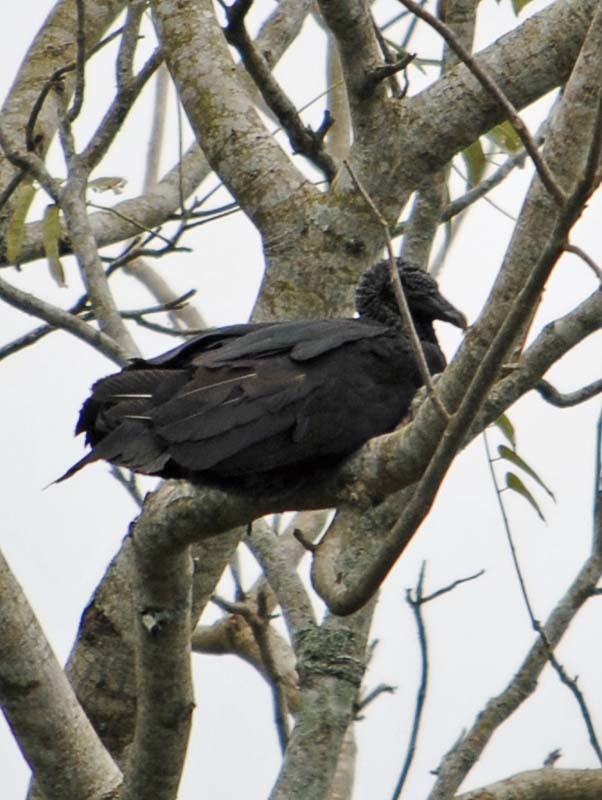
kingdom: Animalia
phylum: Chordata
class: Aves
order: Accipitriformes
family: Cathartidae
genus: Coragyps
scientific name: Coragyps atratus
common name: Black vulture
